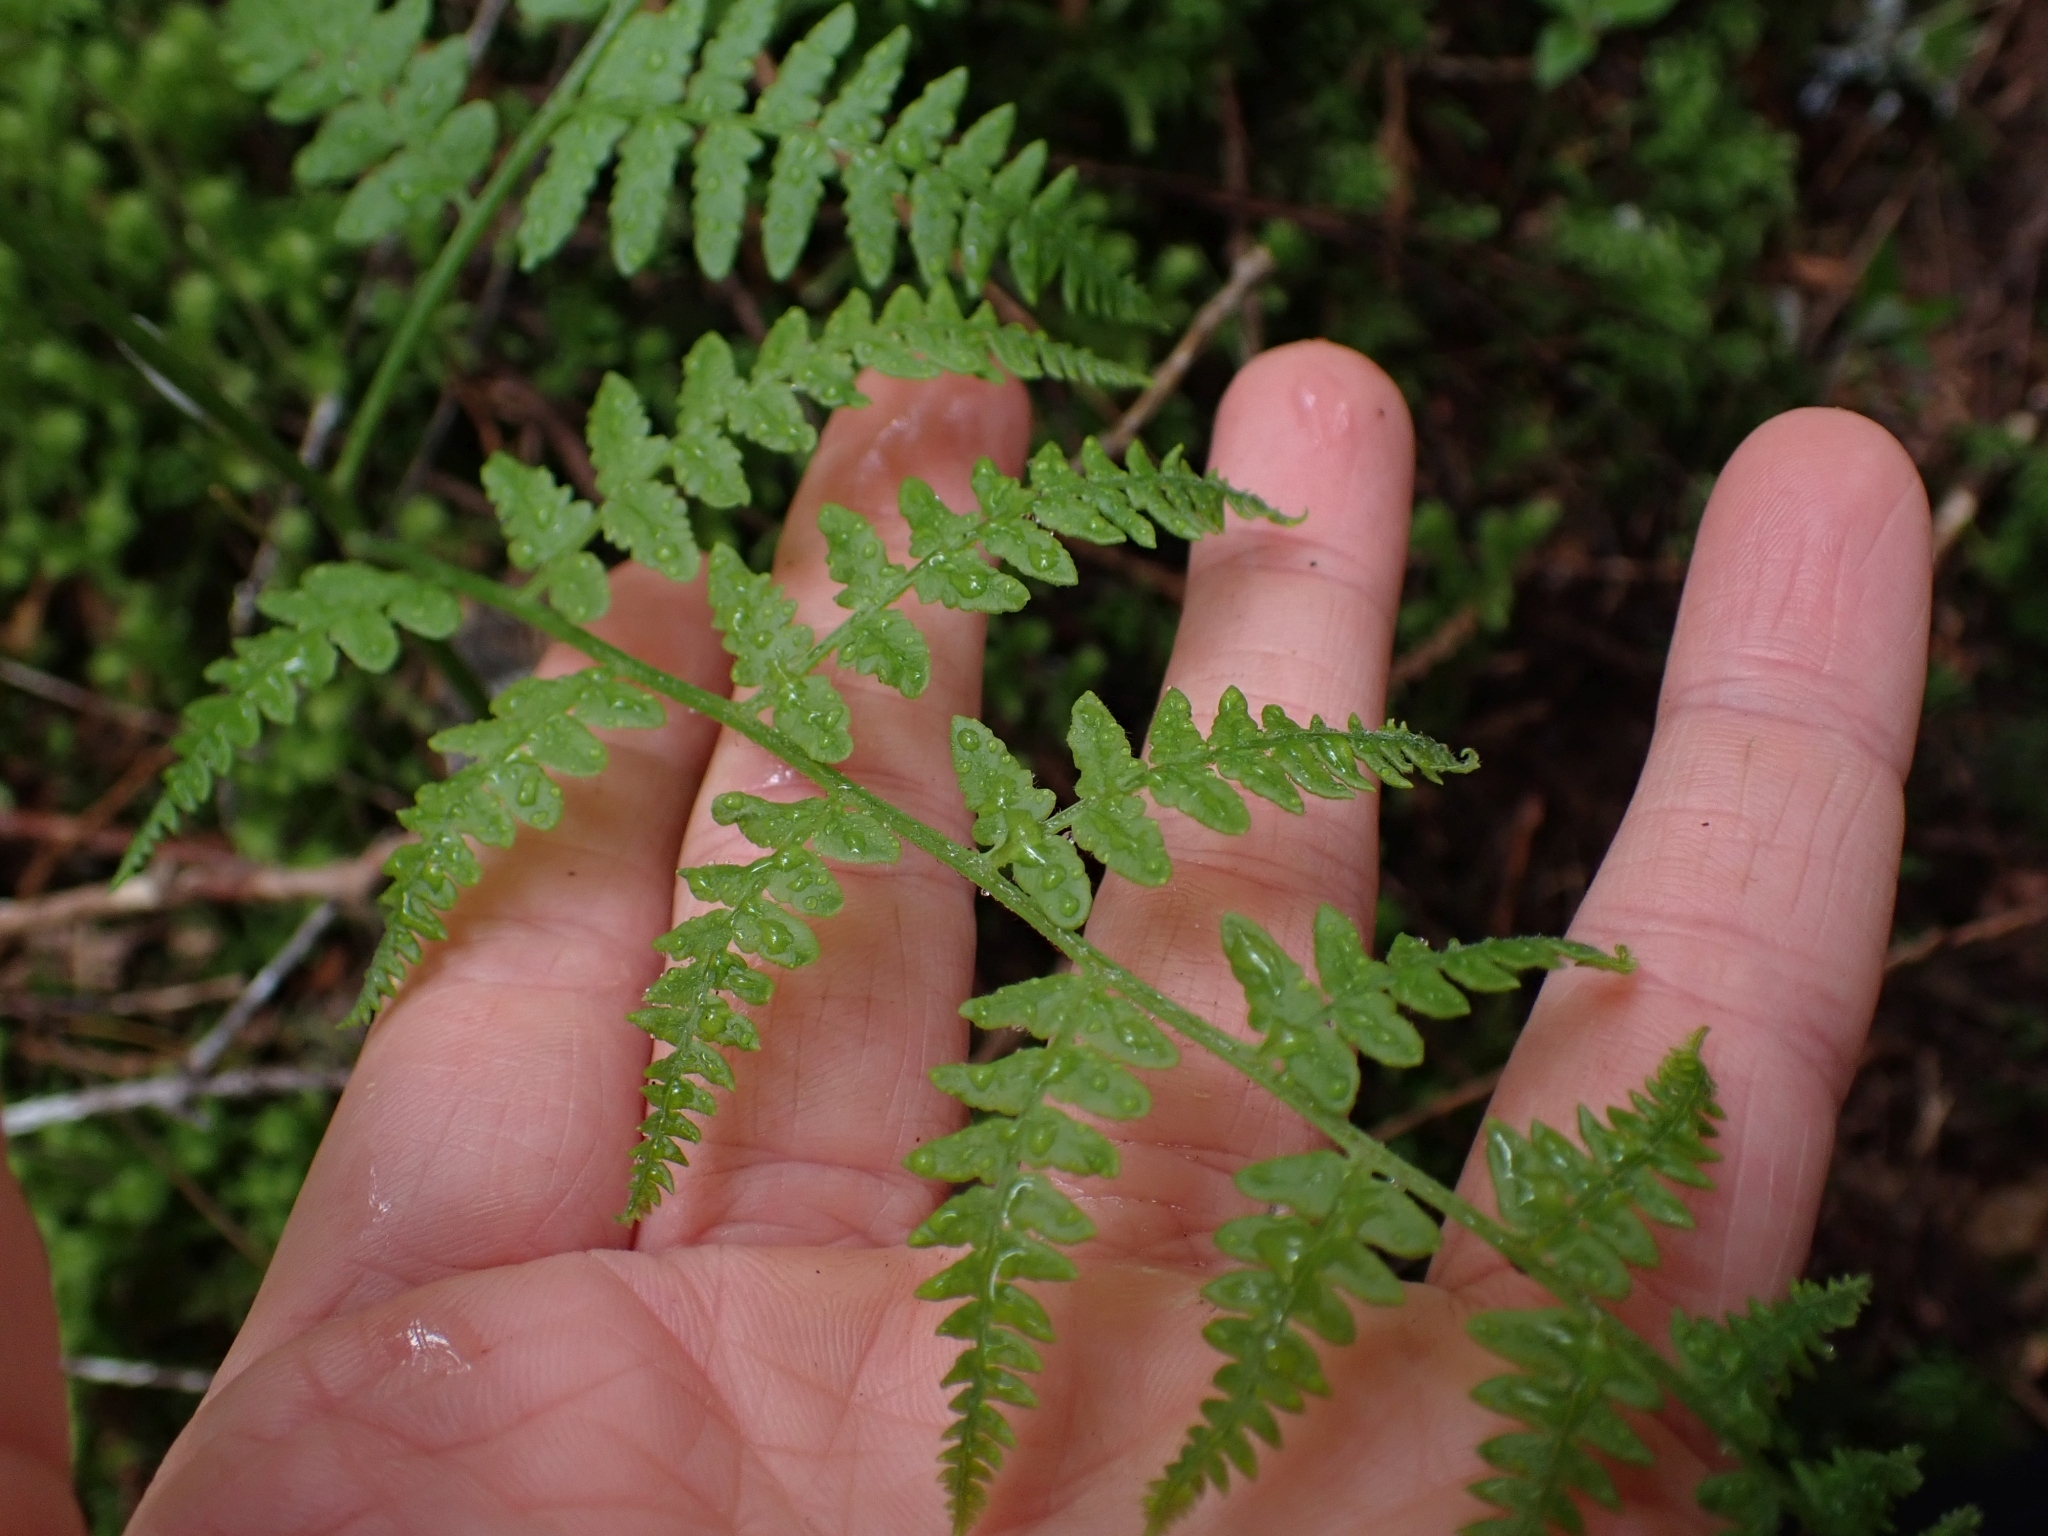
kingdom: Plantae
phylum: Tracheophyta
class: Polypodiopsida
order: Polypodiales
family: Dennstaedtiaceae
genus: Pteridium
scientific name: Pteridium aquilinum
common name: Bracken
